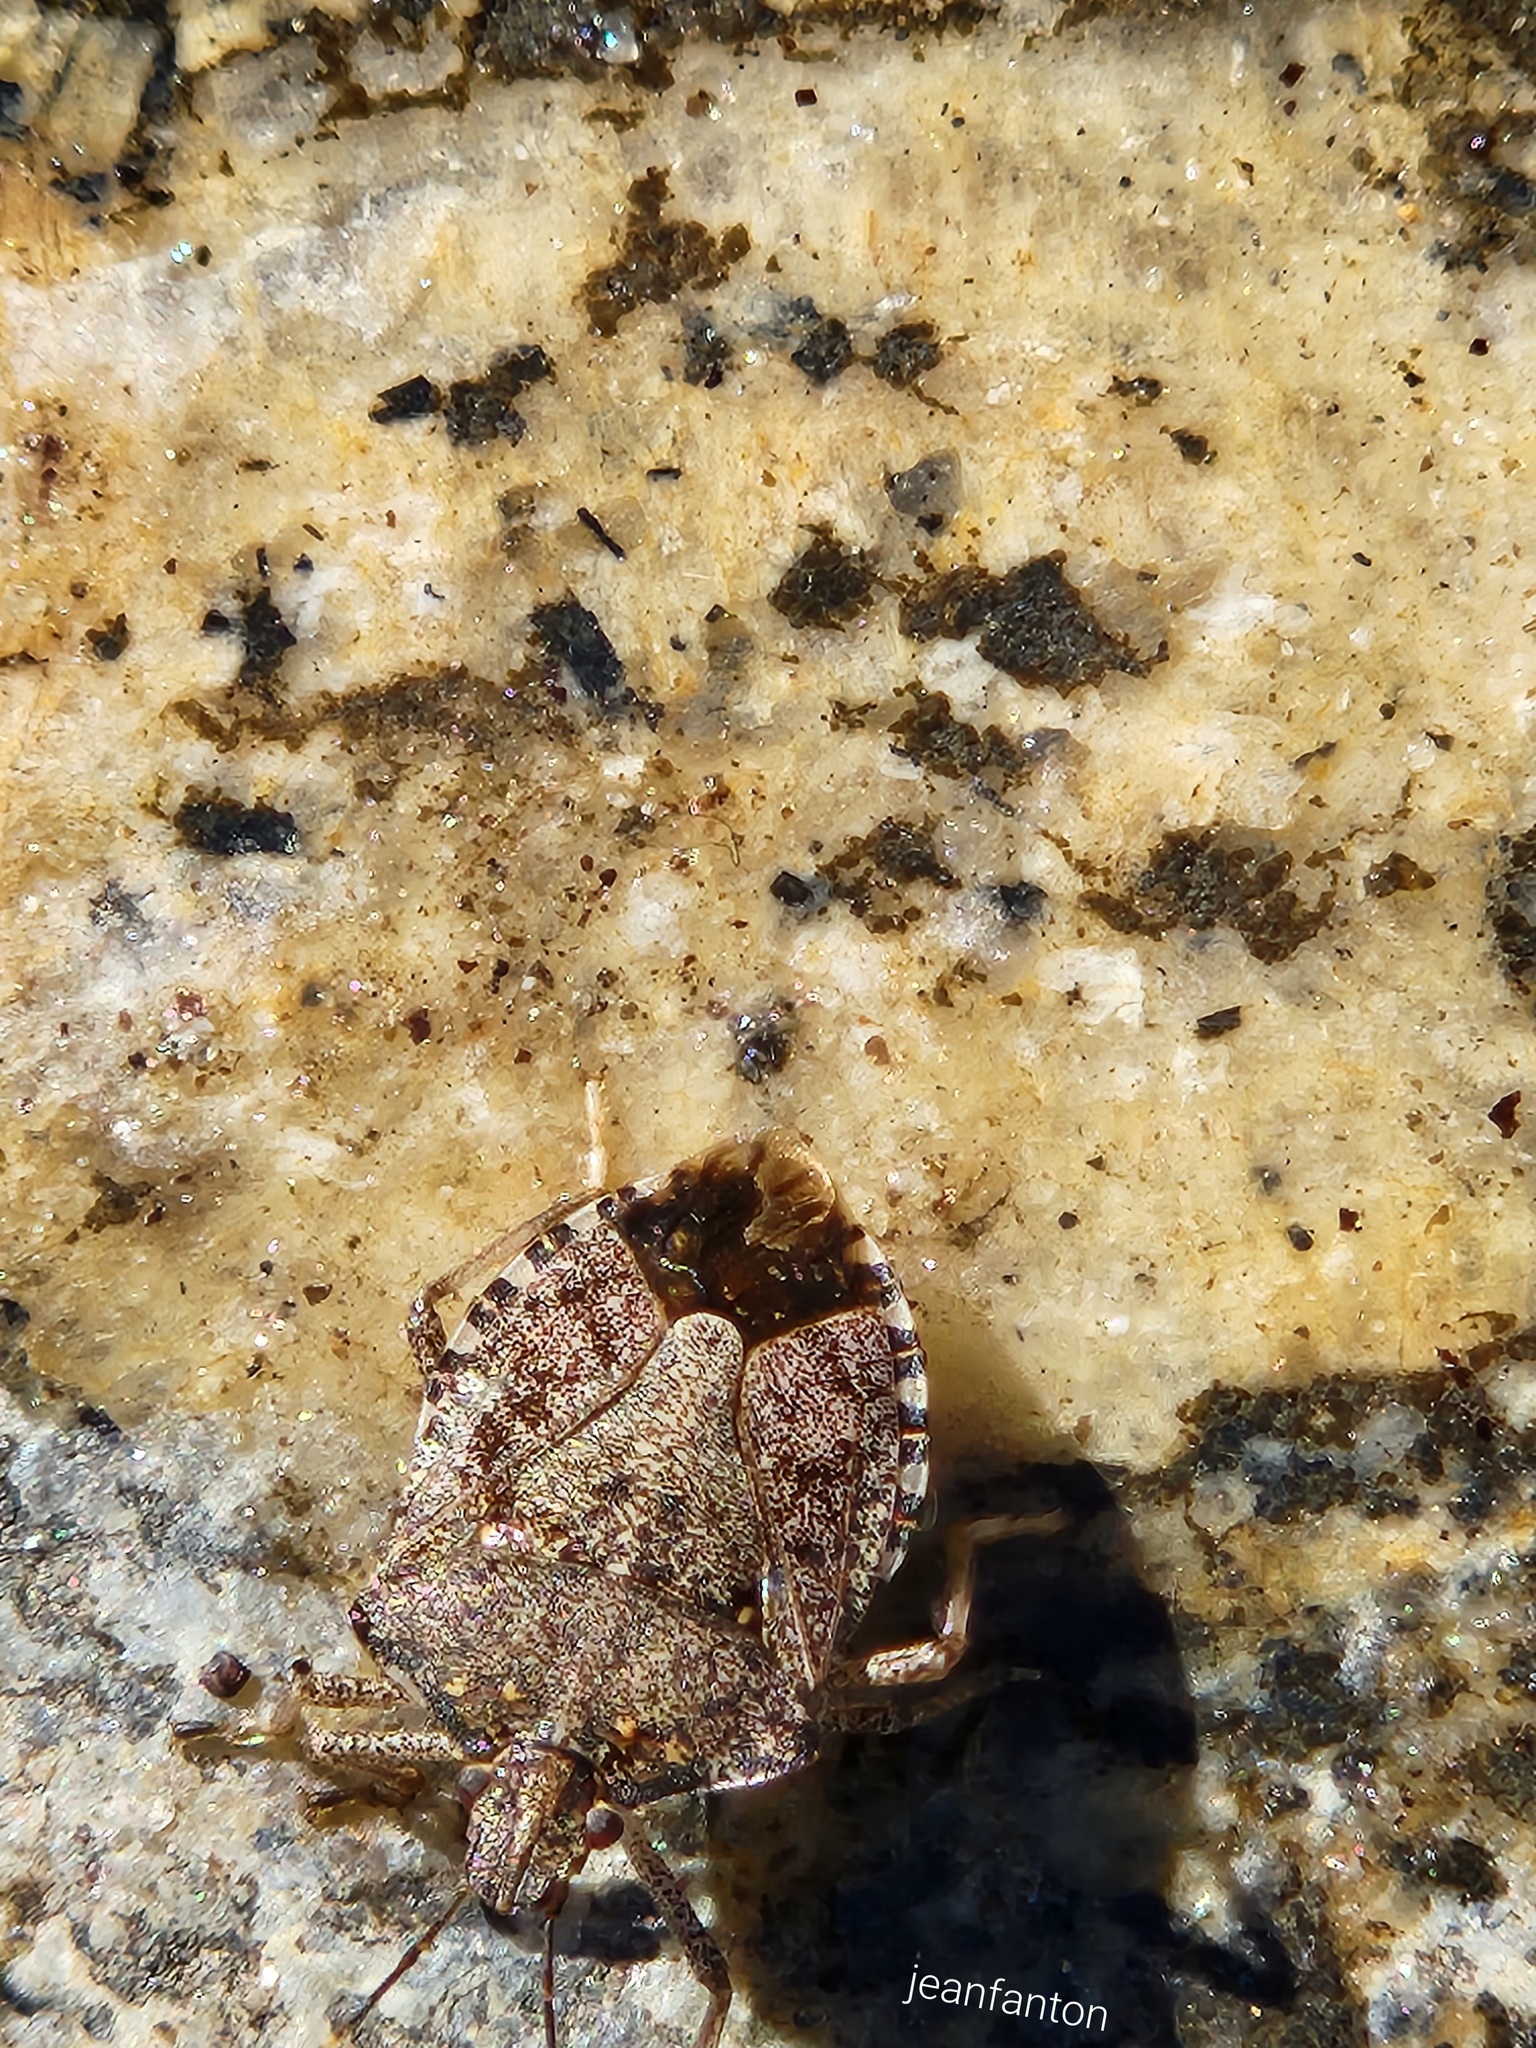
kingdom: Animalia
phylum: Arthropoda
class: Insecta
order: Hemiptera
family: Pentatomidae
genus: Halyomorpha
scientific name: Halyomorpha halys
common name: Brown marmorated stink bug
